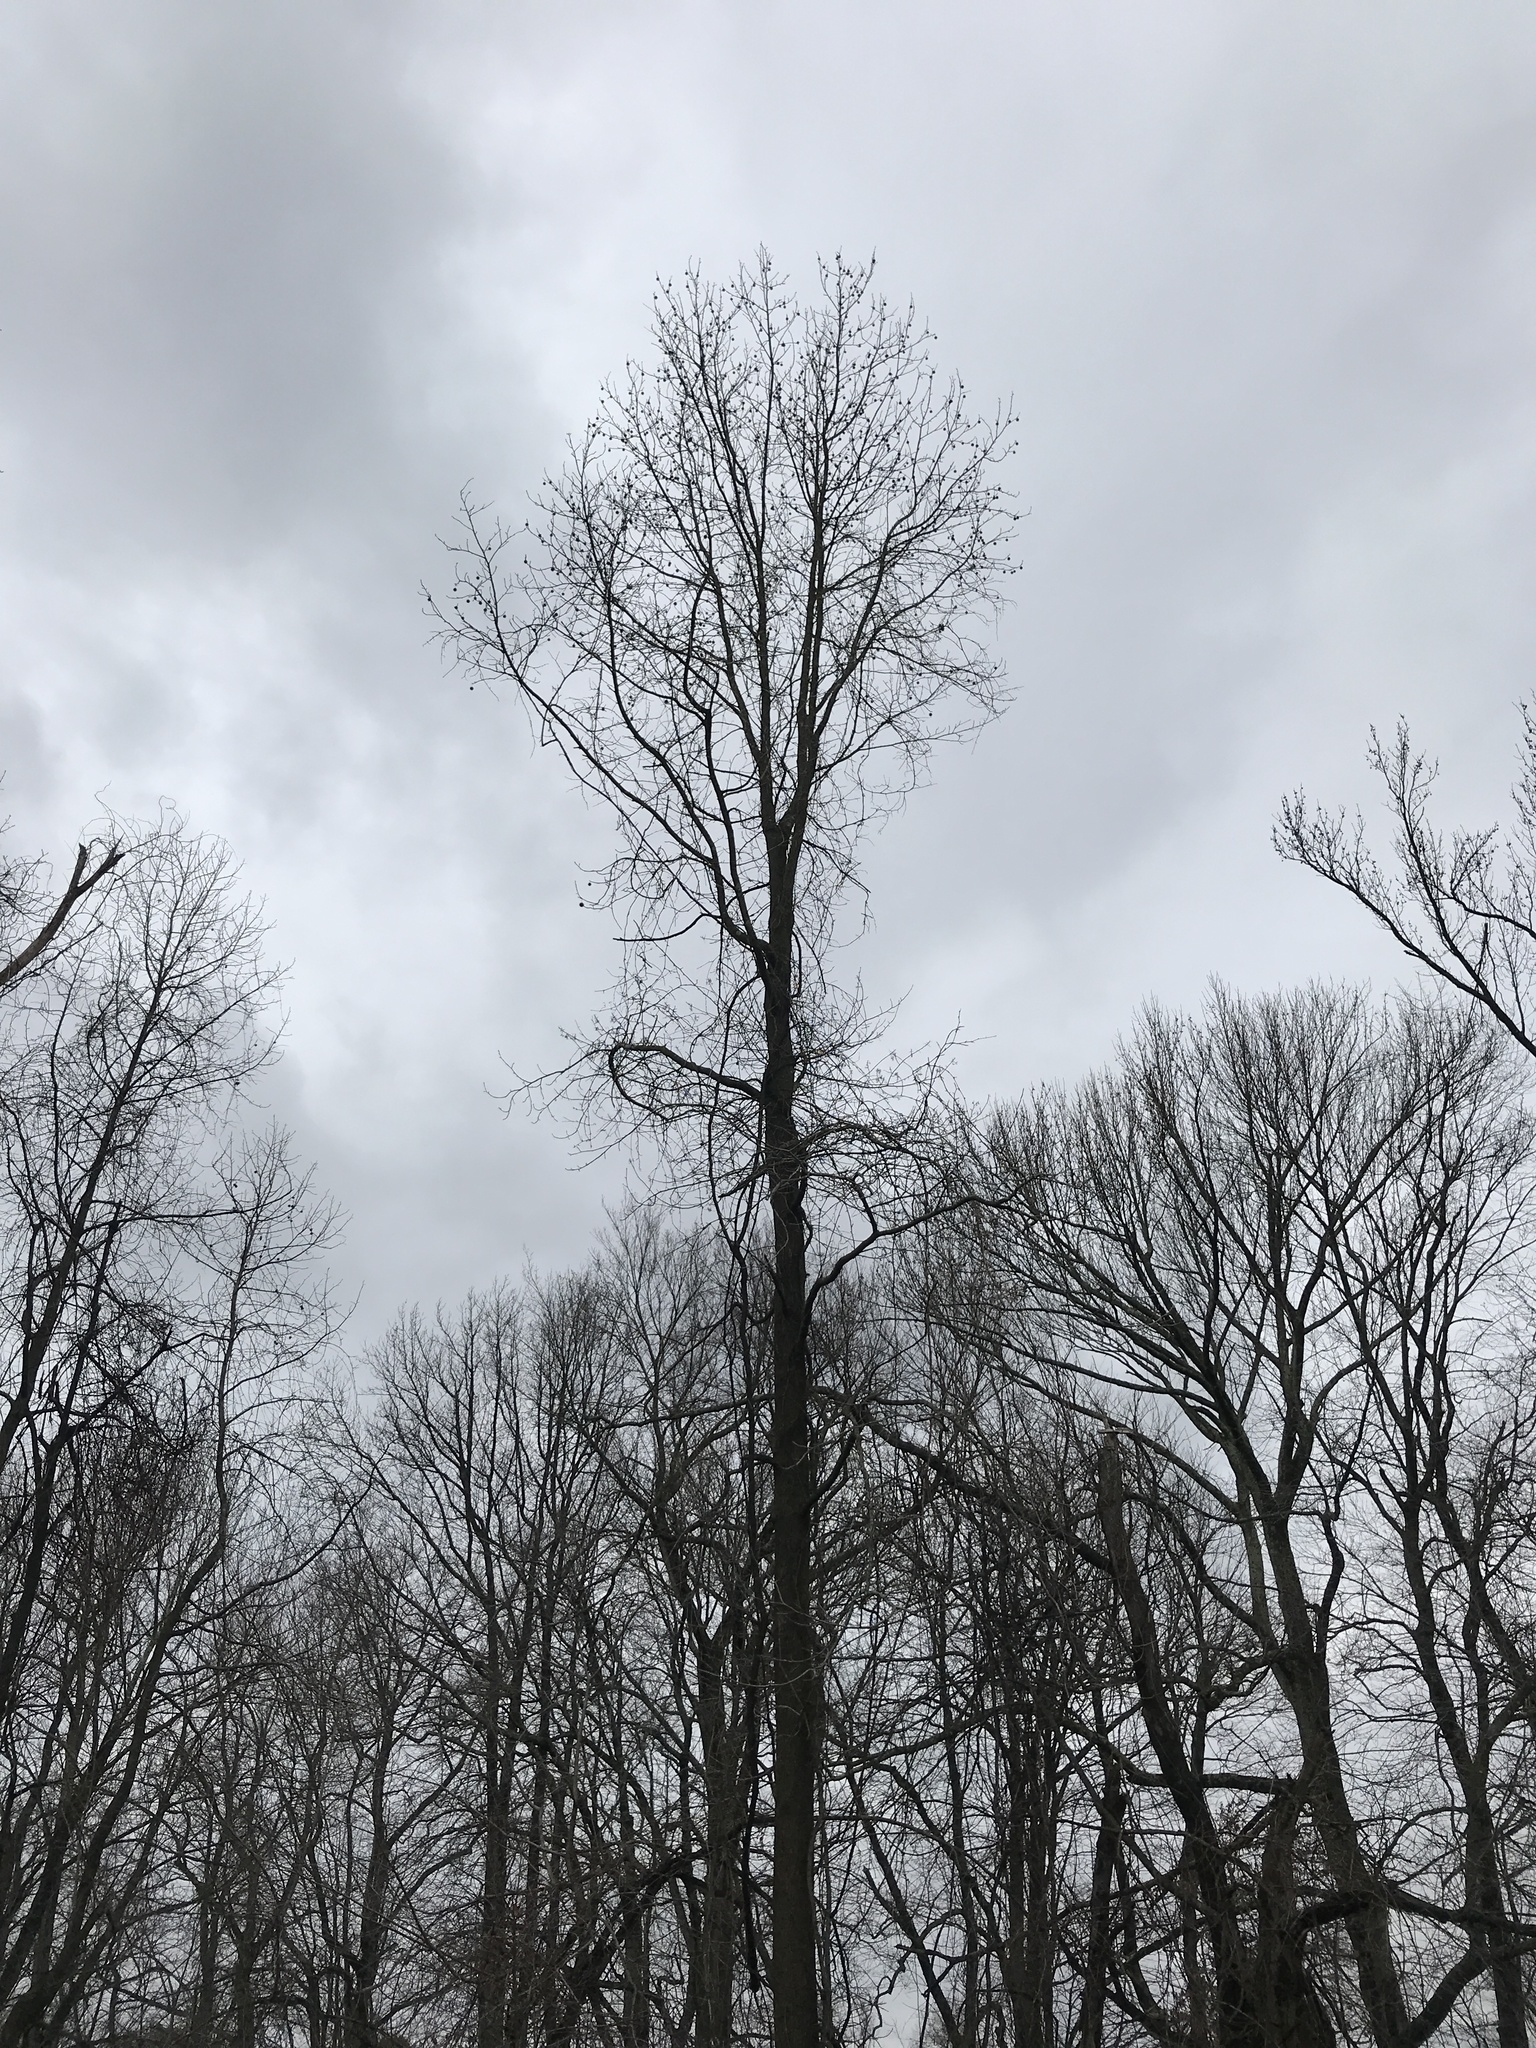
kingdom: Plantae
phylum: Tracheophyta
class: Magnoliopsida
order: Saxifragales
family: Altingiaceae
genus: Liquidambar
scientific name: Liquidambar styraciflua
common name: Sweet gum
